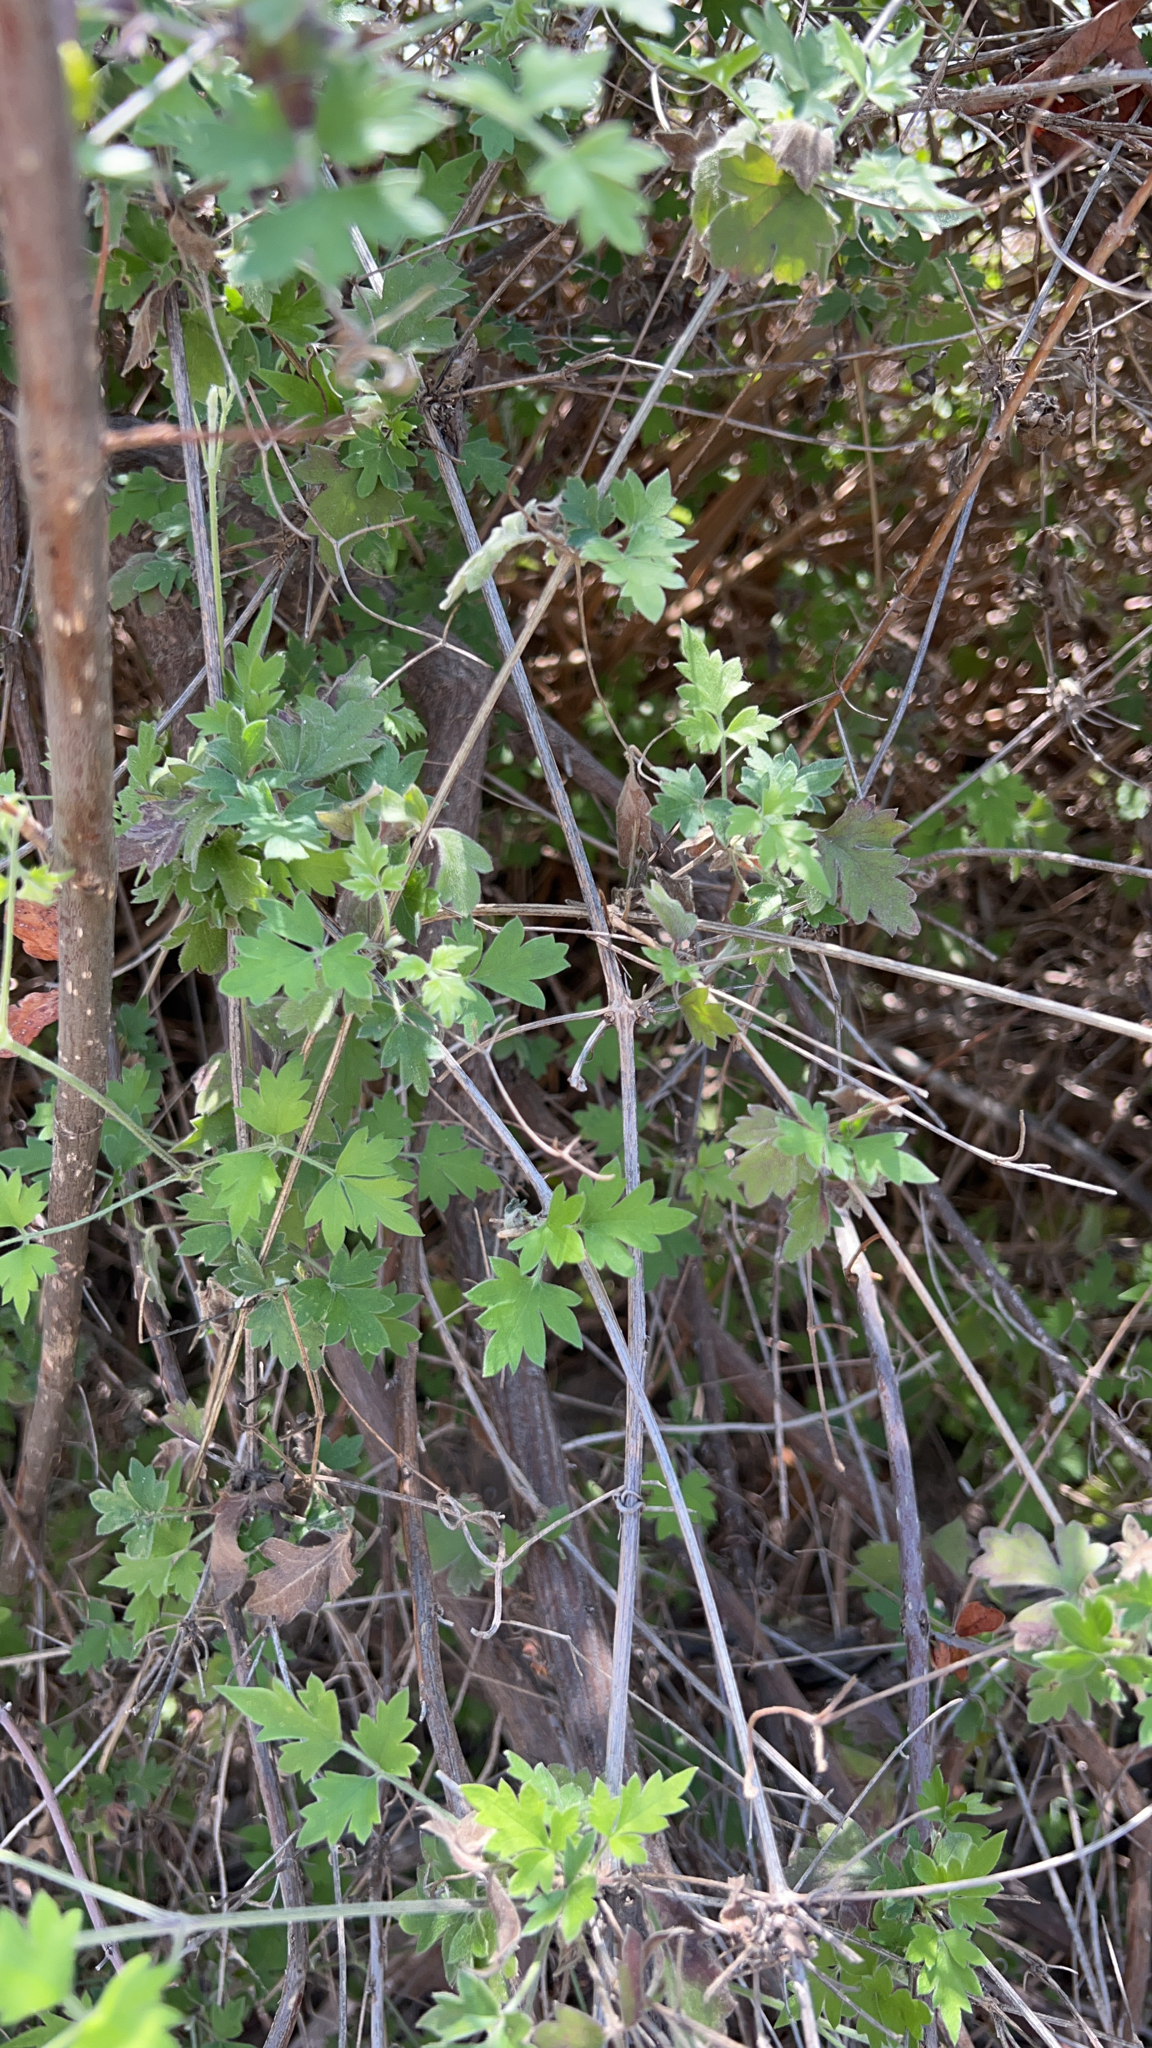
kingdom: Plantae
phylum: Tracheophyta
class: Magnoliopsida
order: Ranunculales
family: Ranunculaceae
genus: Clematis
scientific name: Clematis drummondii
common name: Texas virgin's bower
